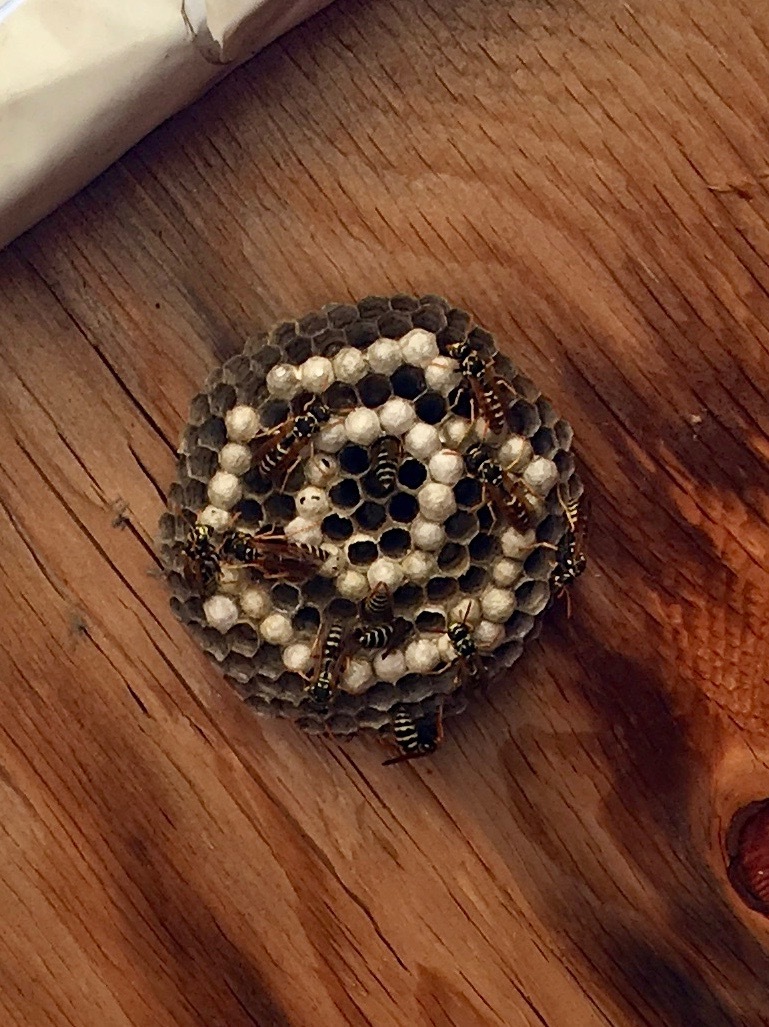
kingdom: Animalia
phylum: Arthropoda
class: Insecta
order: Hymenoptera
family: Eumenidae
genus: Polistes
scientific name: Polistes dominula
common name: Paper wasp
